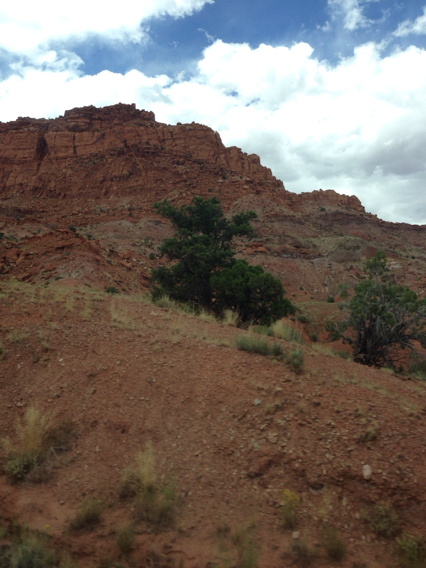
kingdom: Plantae
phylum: Tracheophyta
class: Pinopsida
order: Pinales
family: Cupressaceae
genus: Juniperus
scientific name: Juniperus osteosperma
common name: Utah juniper
